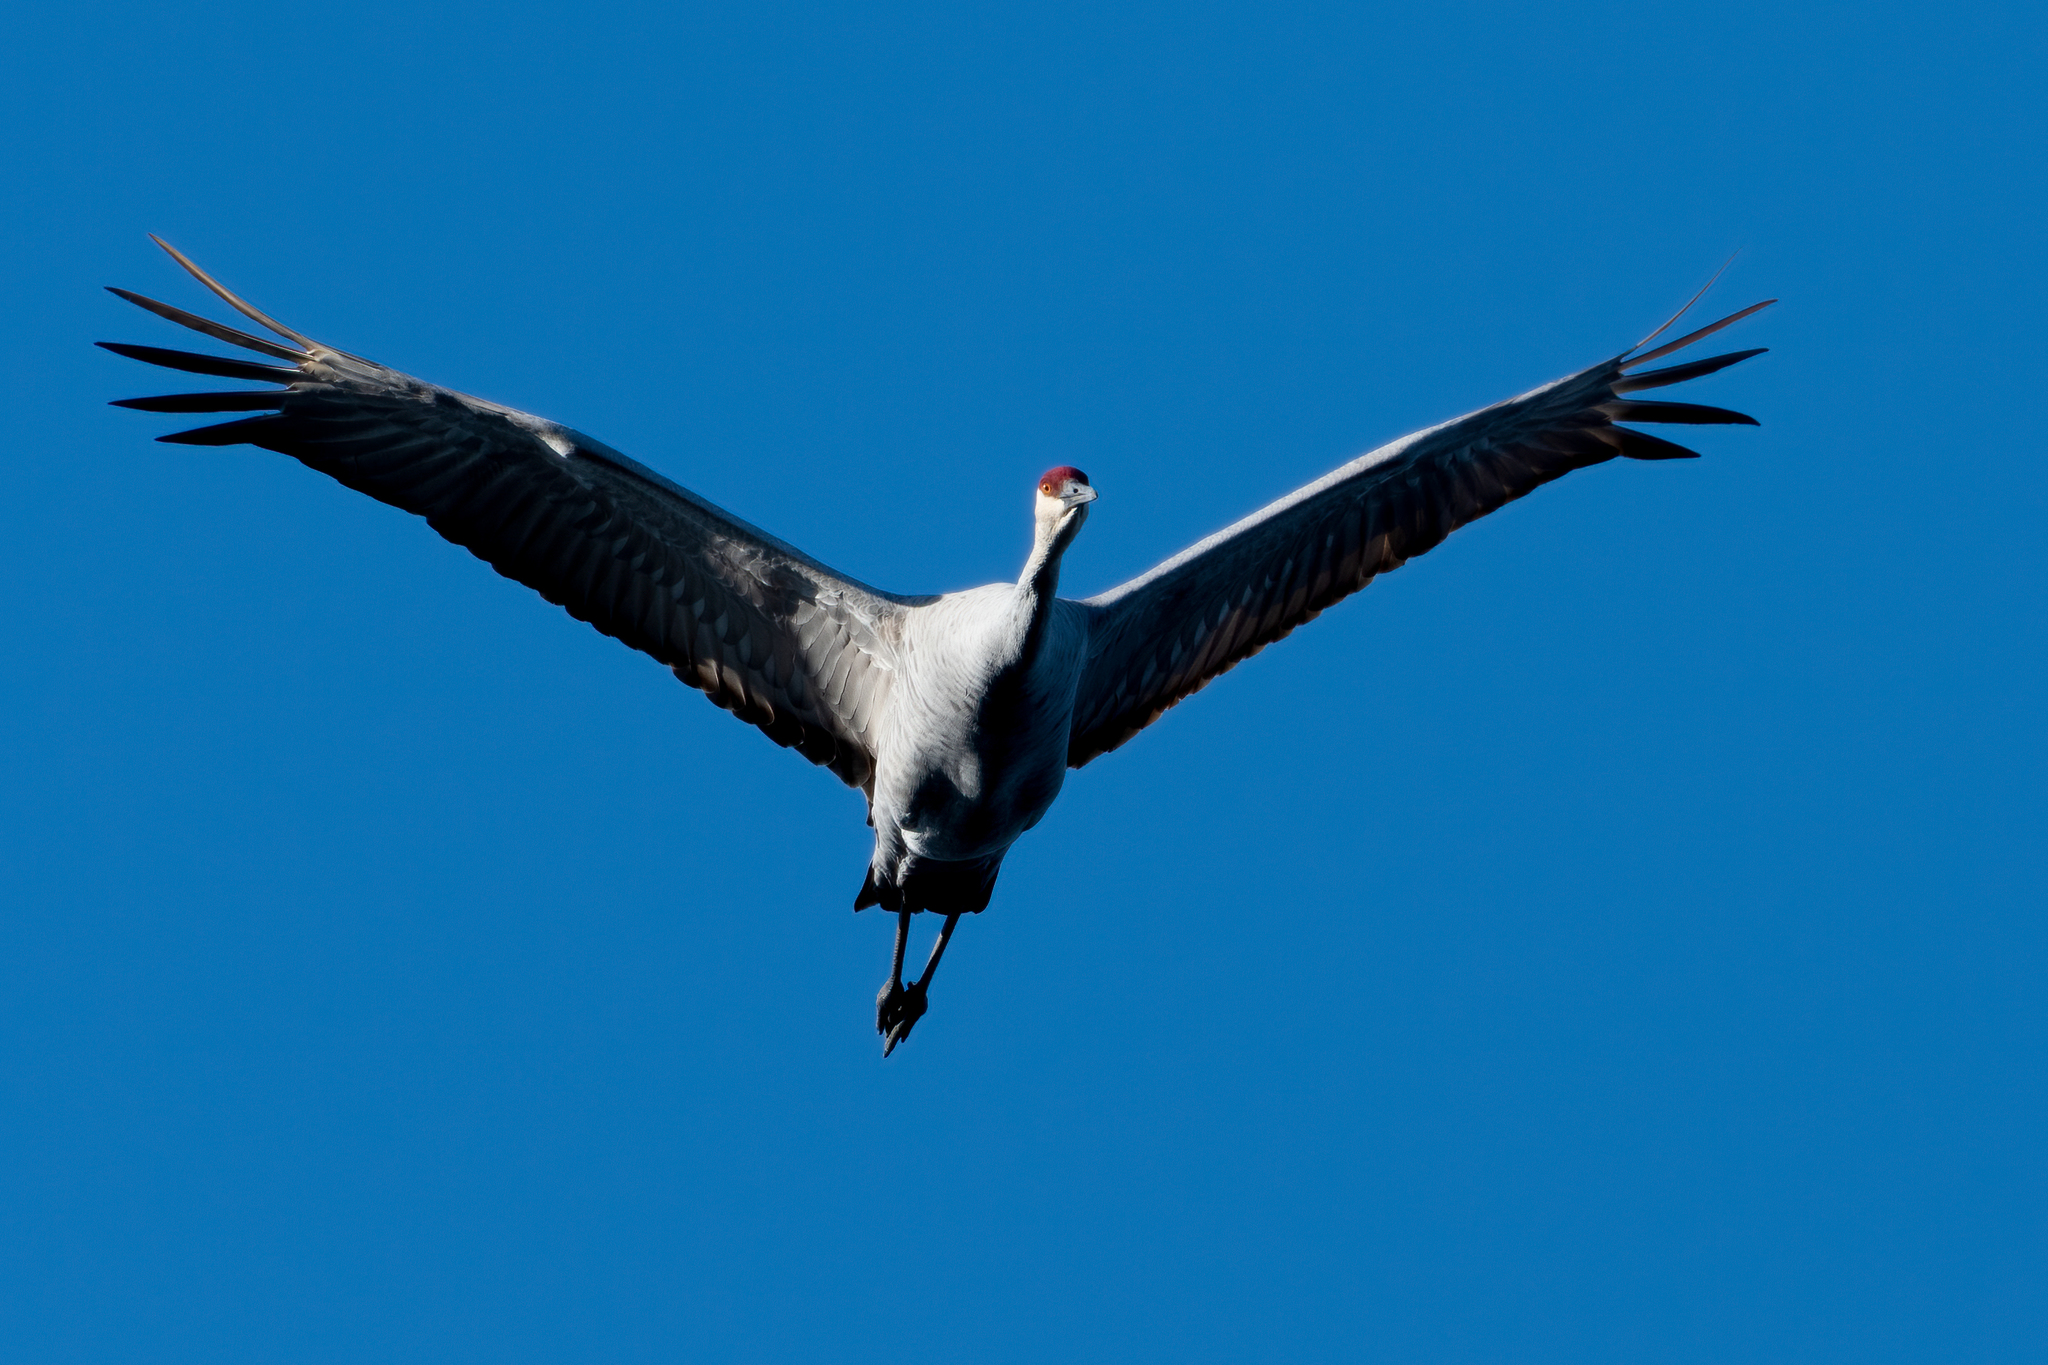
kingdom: Animalia
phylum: Chordata
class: Aves
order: Gruiformes
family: Gruidae
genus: Grus
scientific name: Grus canadensis
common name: Sandhill crane
